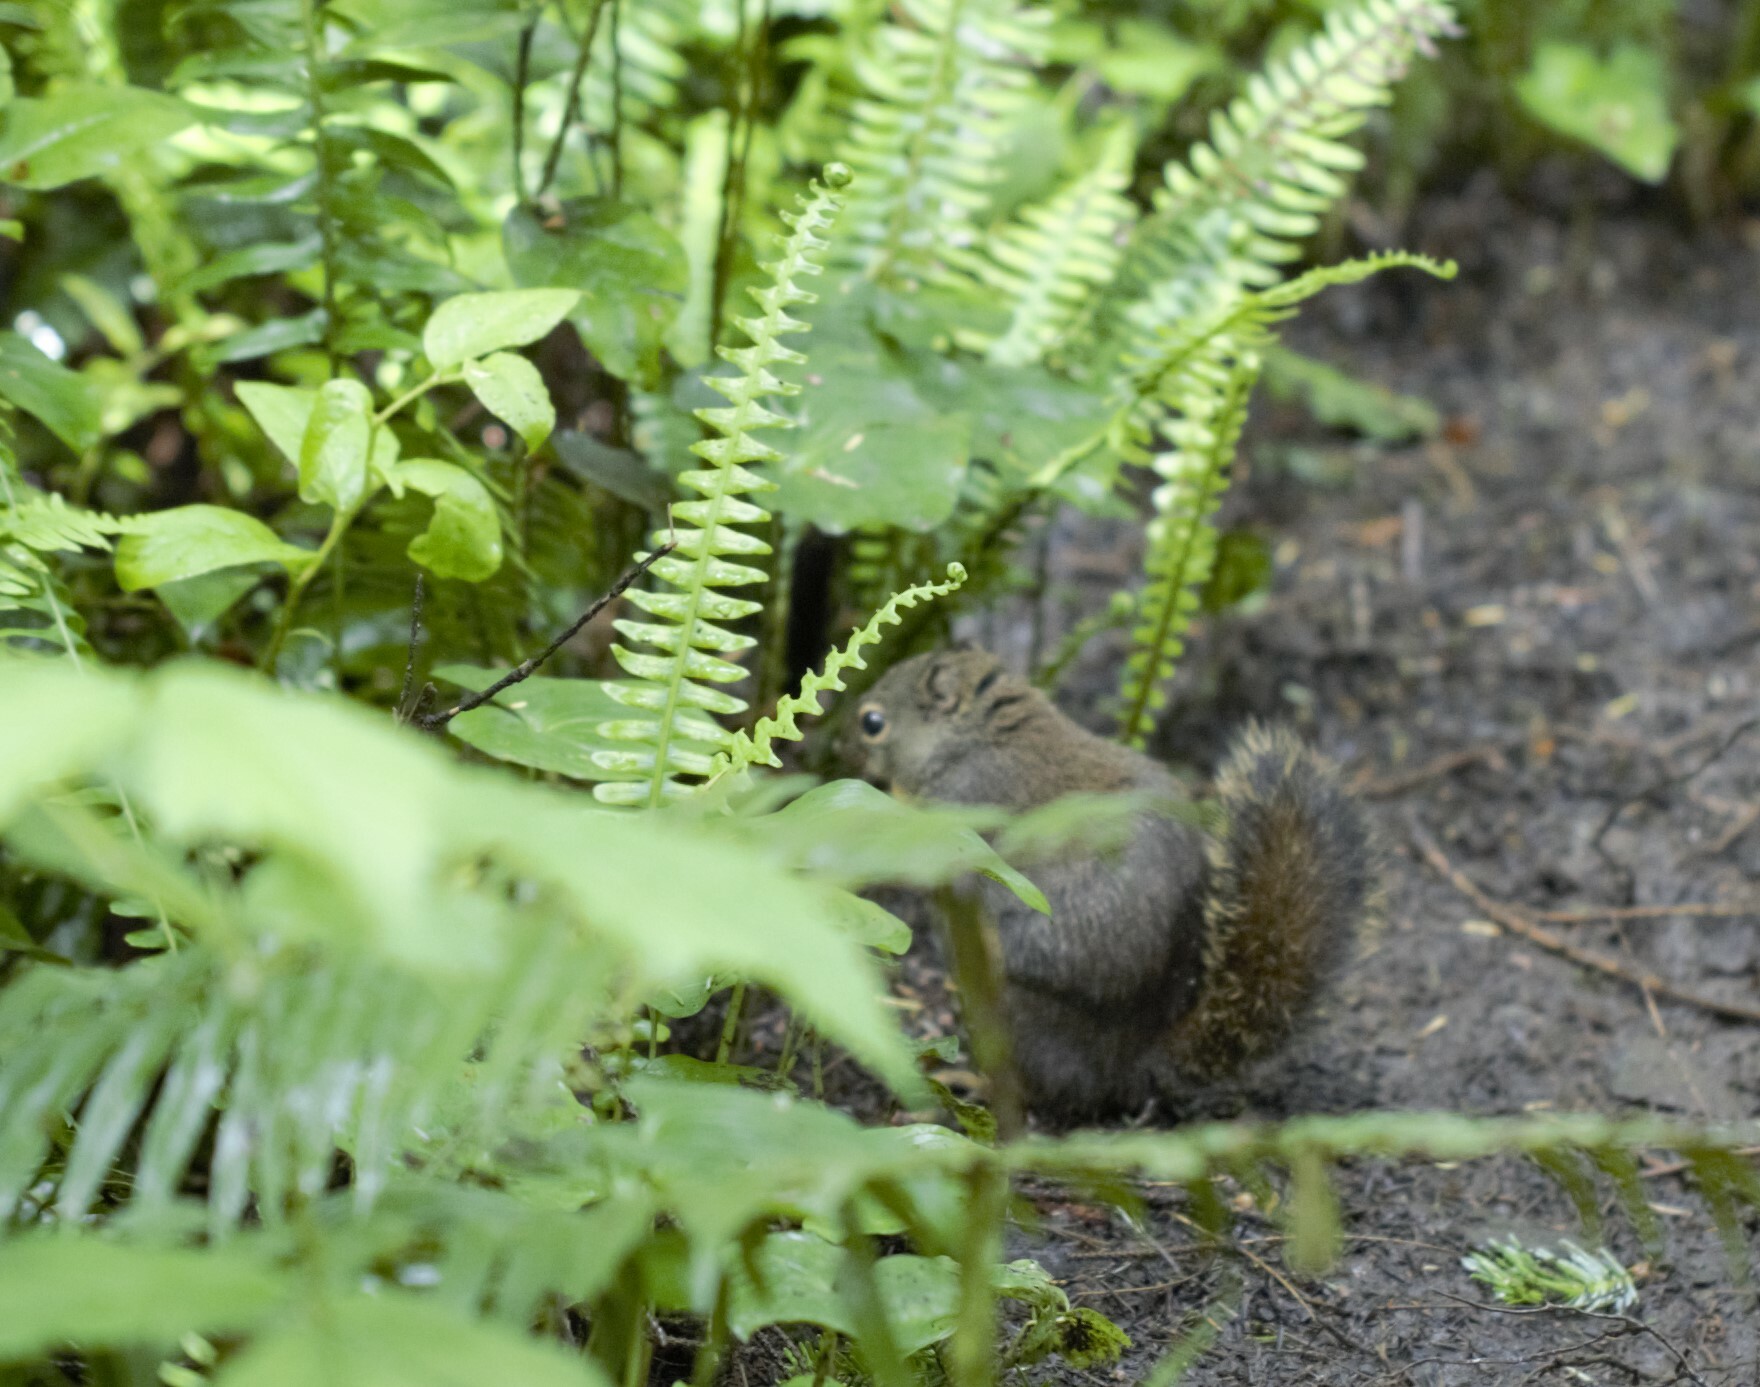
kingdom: Animalia
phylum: Chordata
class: Mammalia
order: Rodentia
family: Sciuridae
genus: Tamiasciurus
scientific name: Tamiasciurus douglasii
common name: Douglas's squirrel
